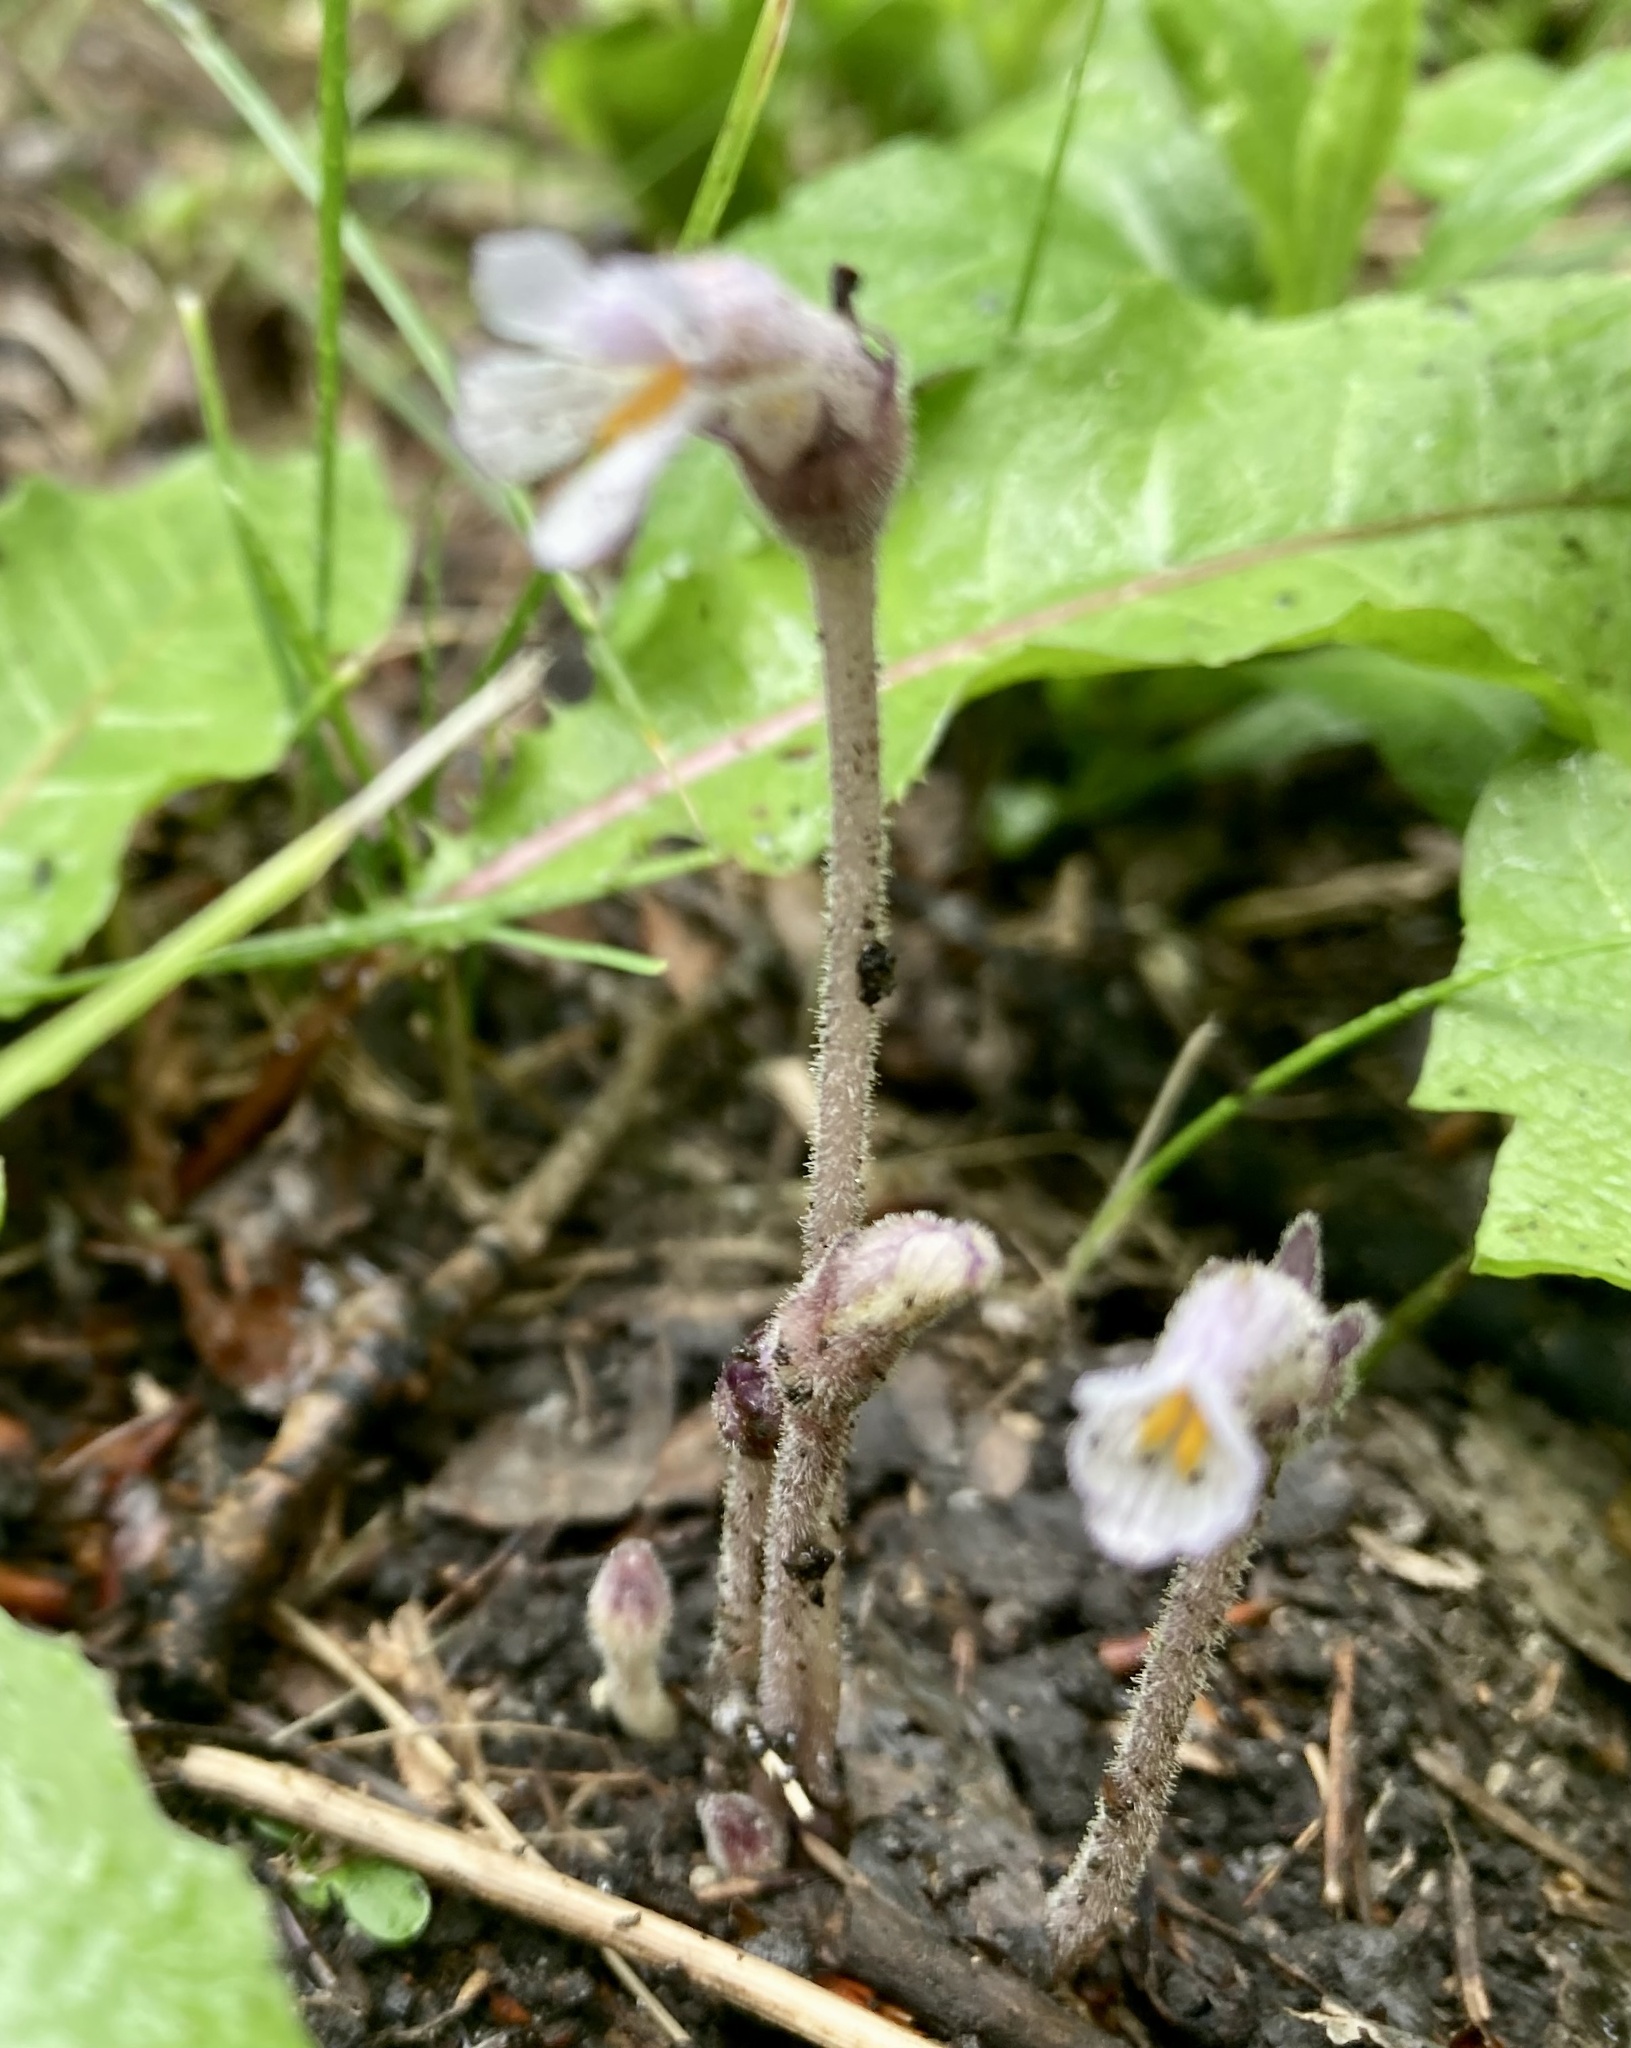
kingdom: Plantae
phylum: Tracheophyta
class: Magnoliopsida
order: Lamiales
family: Orobanchaceae
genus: Aphyllon
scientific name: Aphyllon uniflorum
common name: One-flowered broomrape
